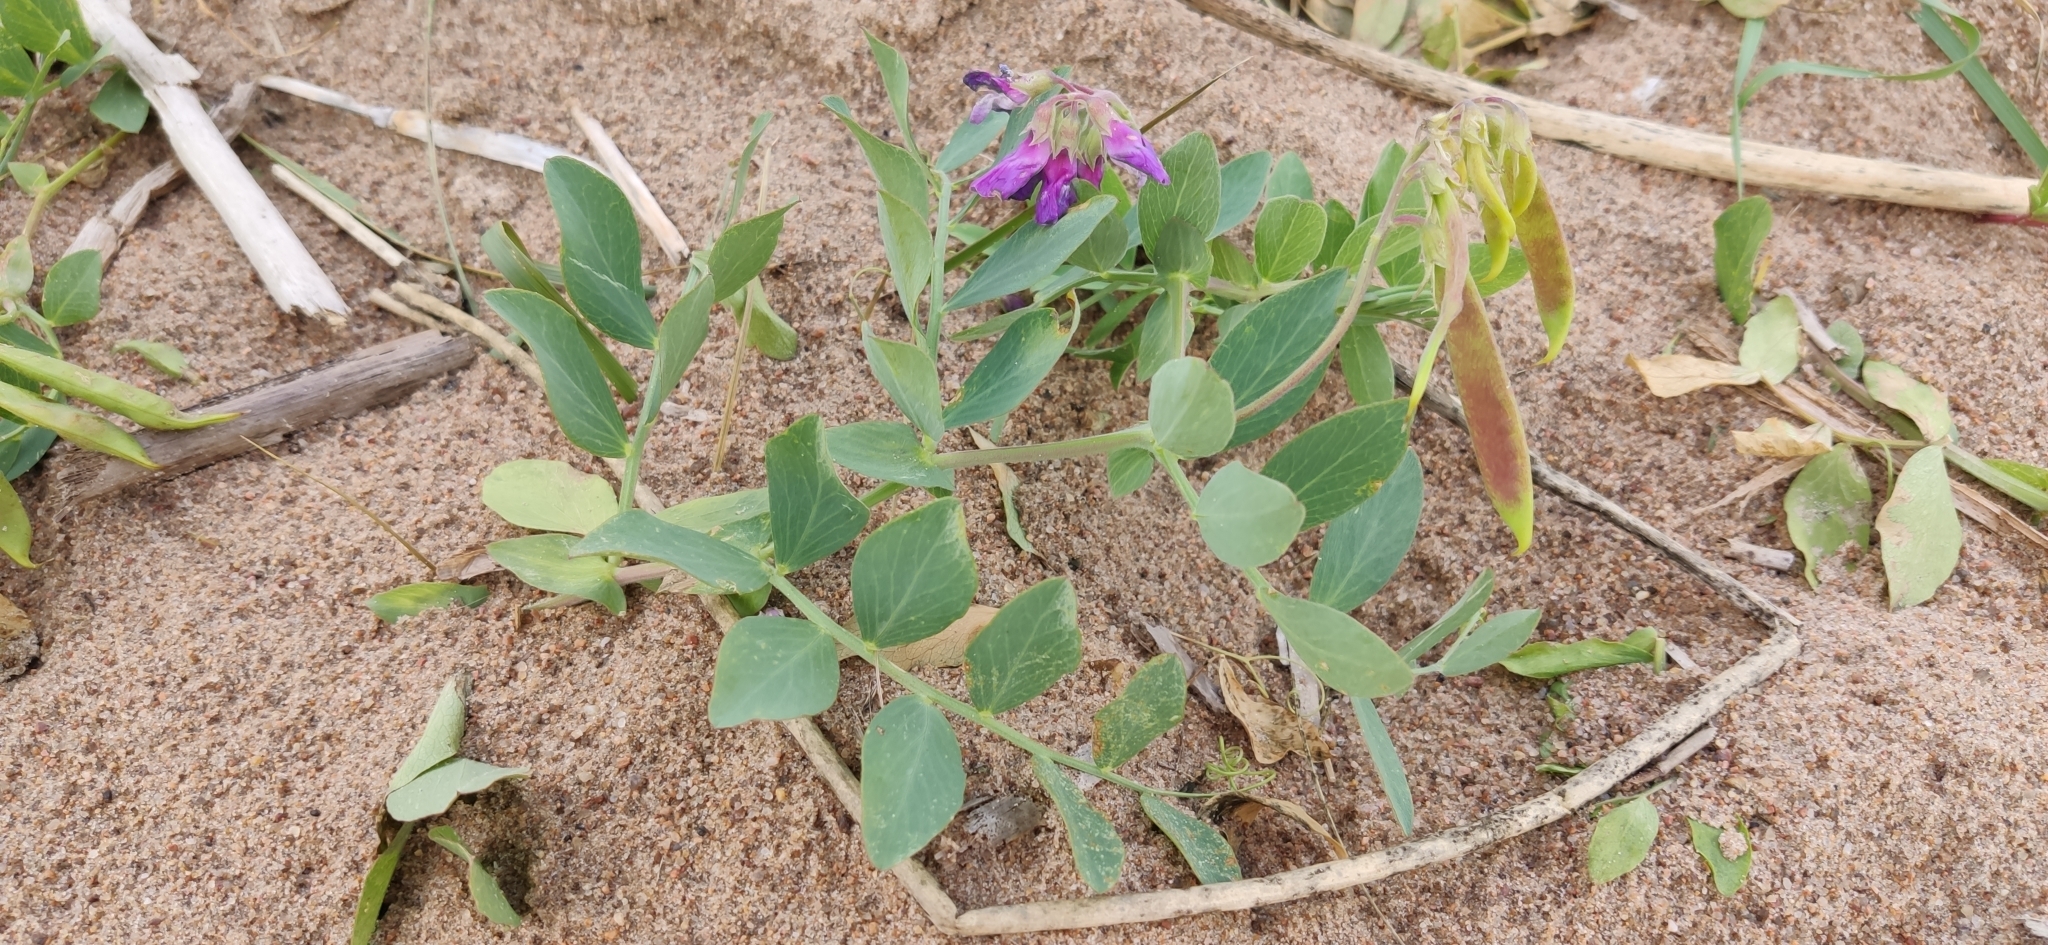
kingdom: Plantae
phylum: Tracheophyta
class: Magnoliopsida
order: Fabales
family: Fabaceae
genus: Lathyrus
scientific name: Lathyrus japonicus
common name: Sea pea
